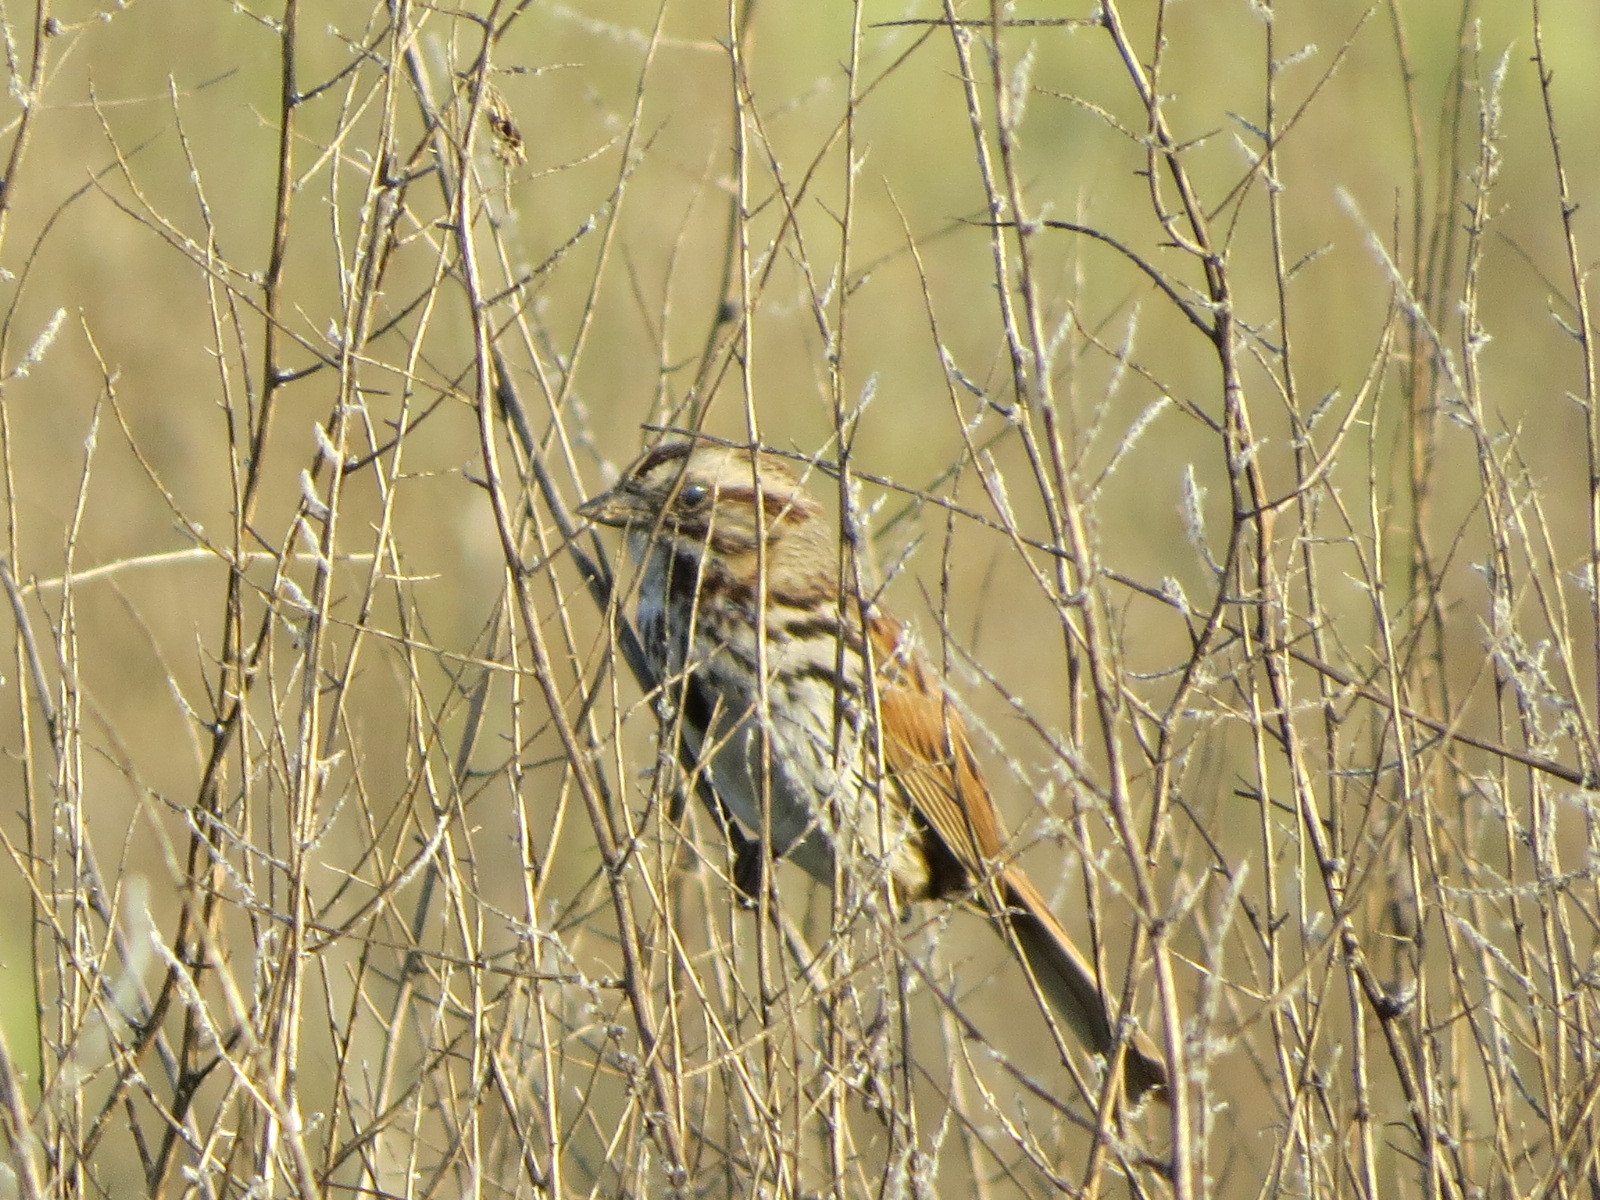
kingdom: Animalia
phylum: Chordata
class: Aves
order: Passeriformes
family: Passerellidae
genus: Melospiza
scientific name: Melospiza melodia
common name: Song sparrow
